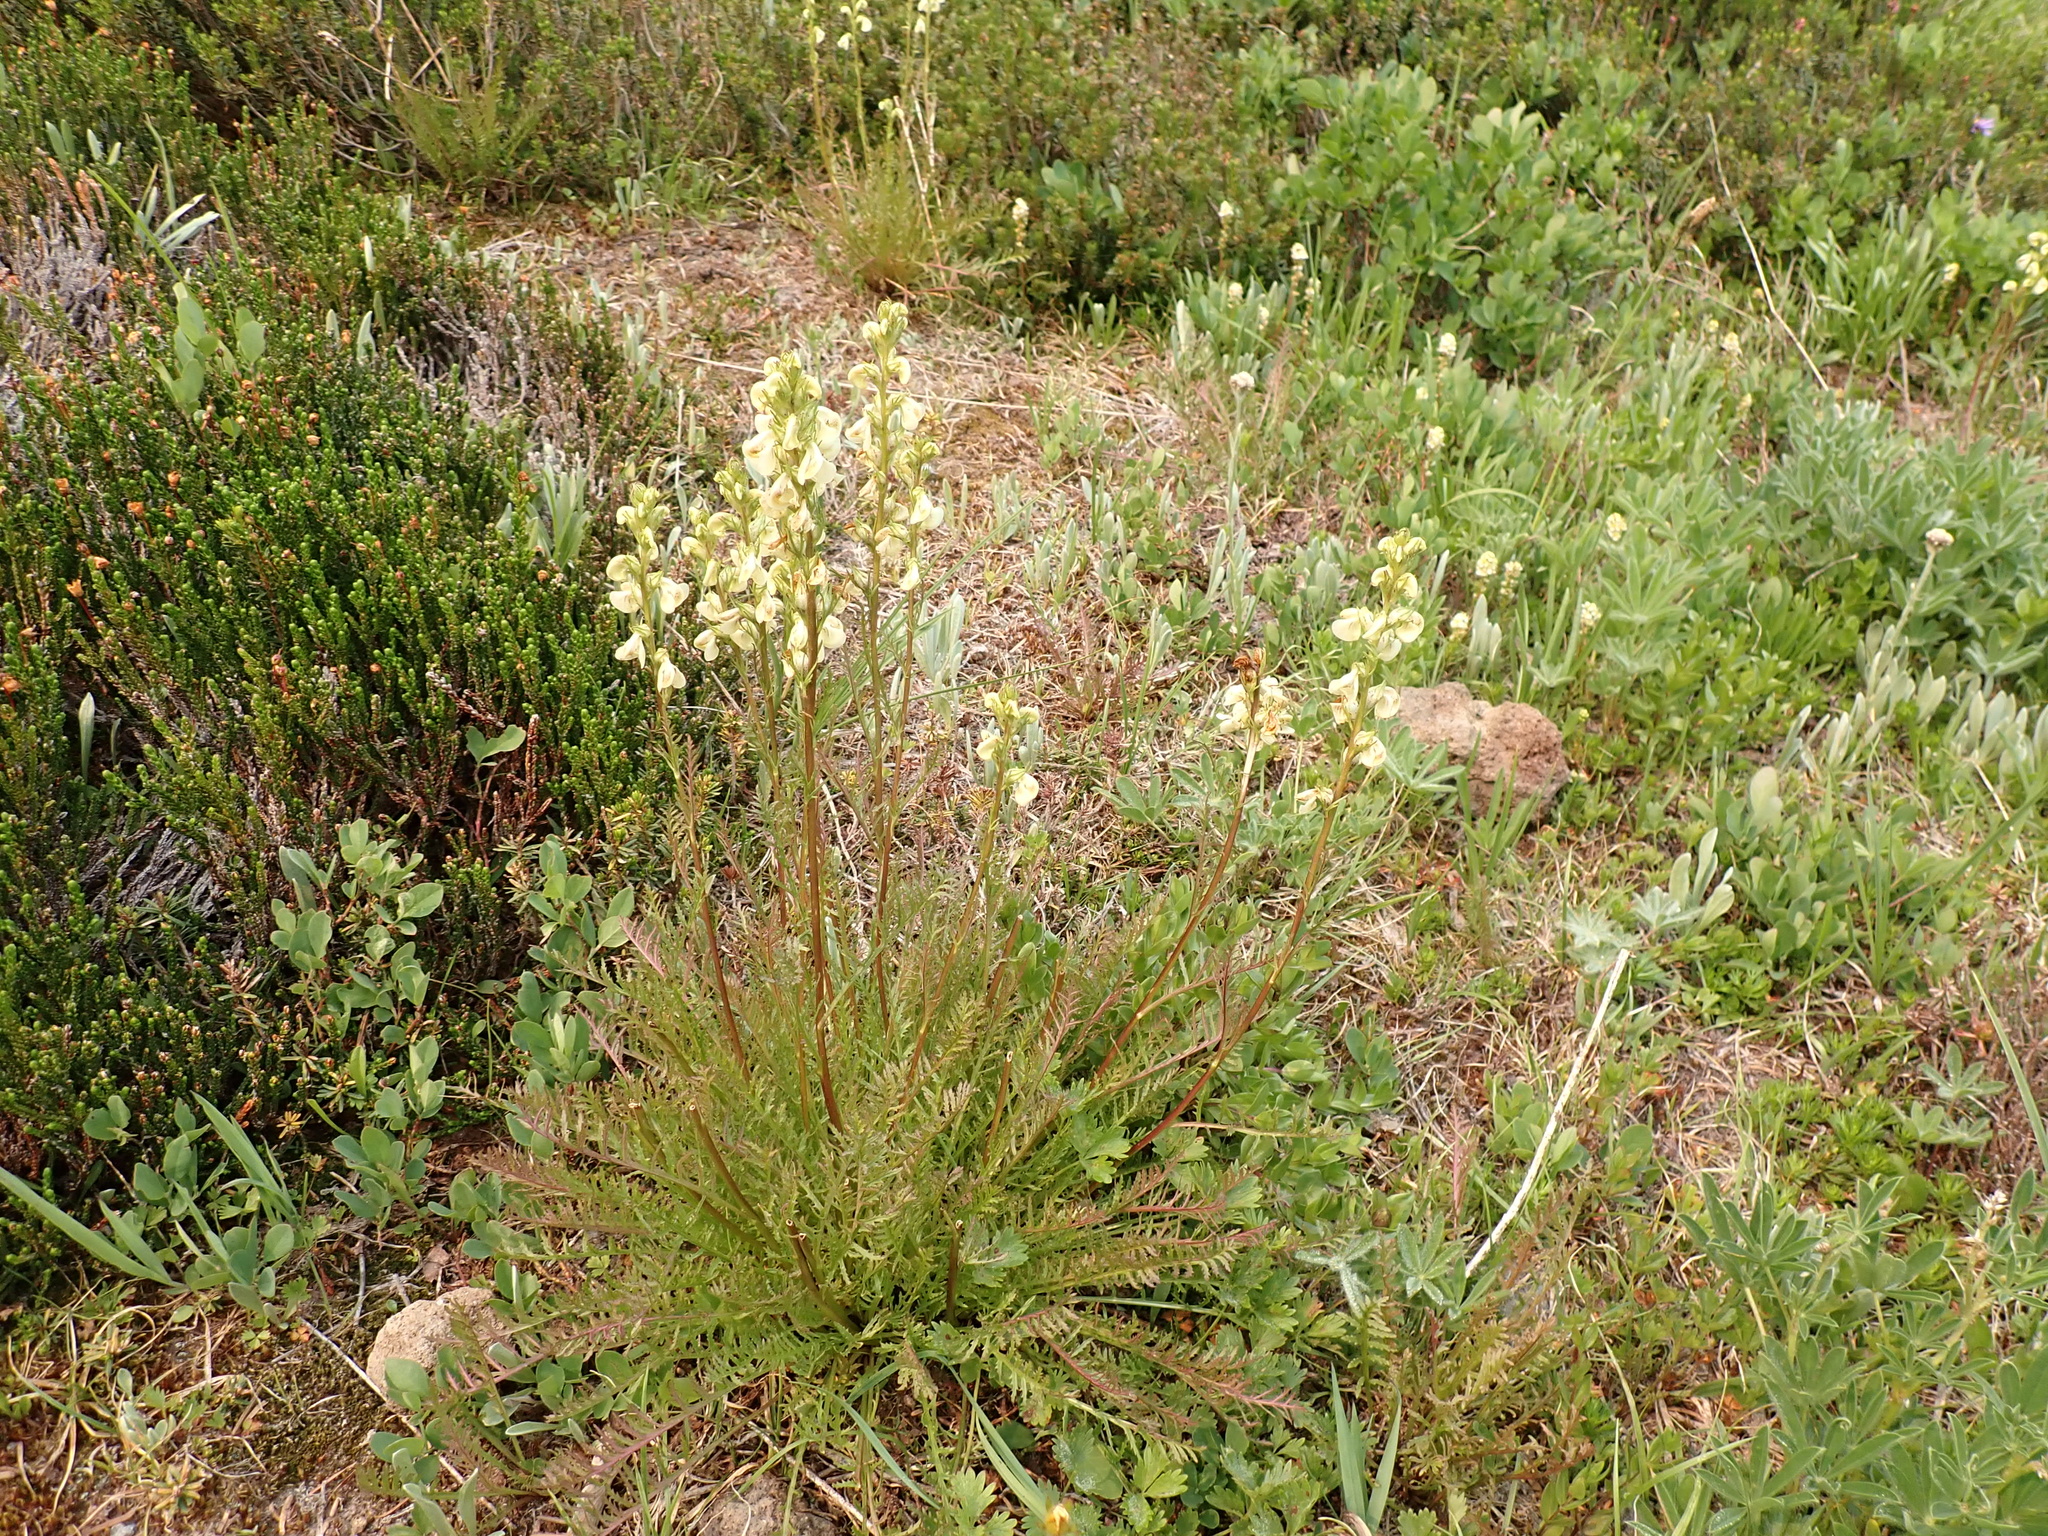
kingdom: Plantae
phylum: Tracheophyta
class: Magnoliopsida
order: Lamiales
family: Orobanchaceae
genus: Pedicularis
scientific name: Pedicularis contorta
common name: Coiled lousewort
